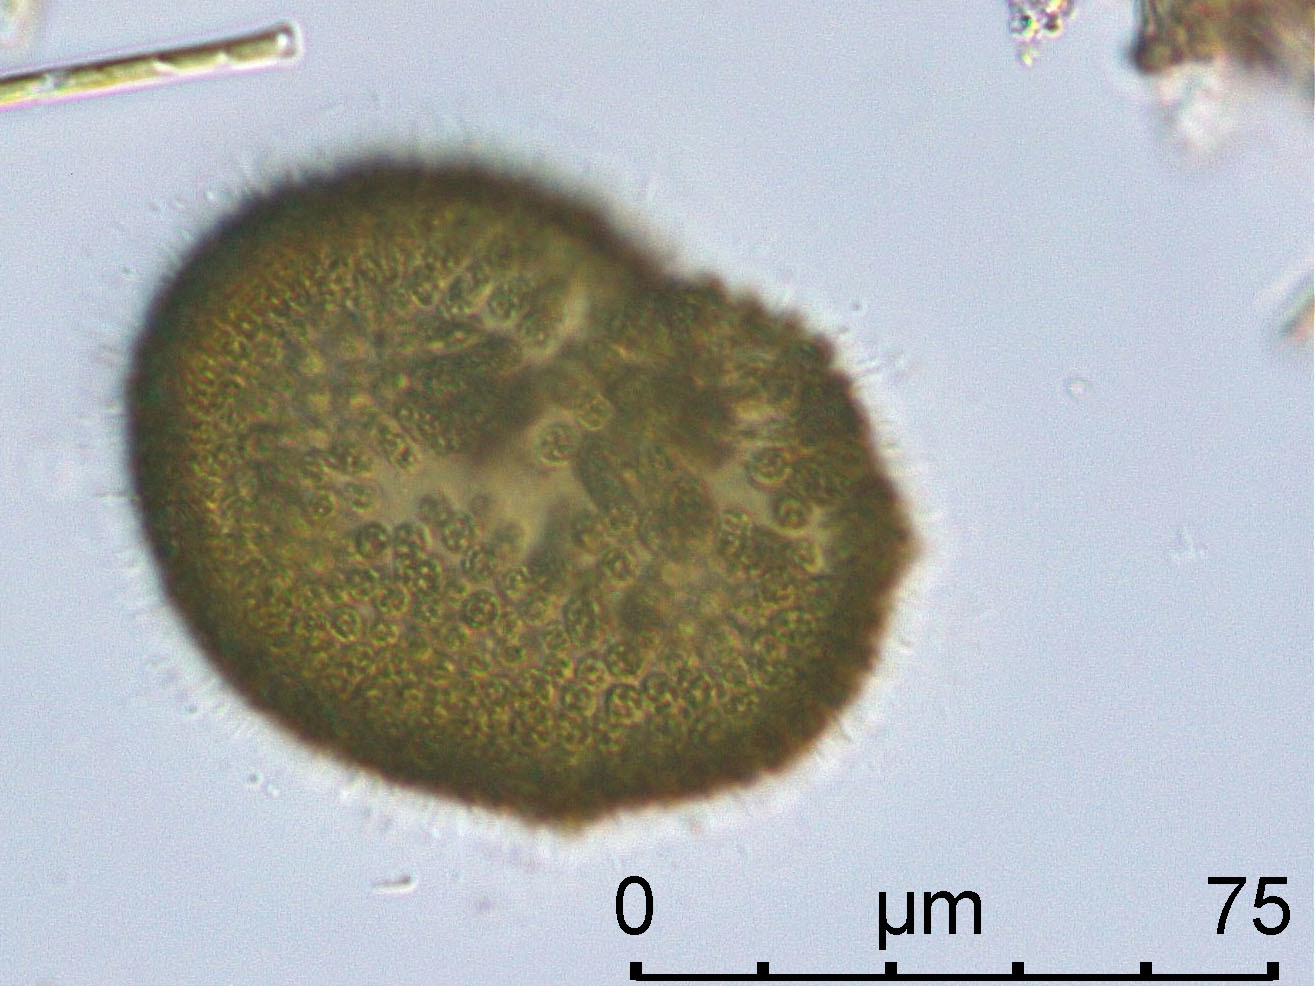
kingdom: Bacteria
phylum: Cyanobacteria
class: Cyanobacteriia
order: Synechococcales
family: Coelosphaeriaceae
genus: Woronichinia
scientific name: Woronichinia naegeliana
